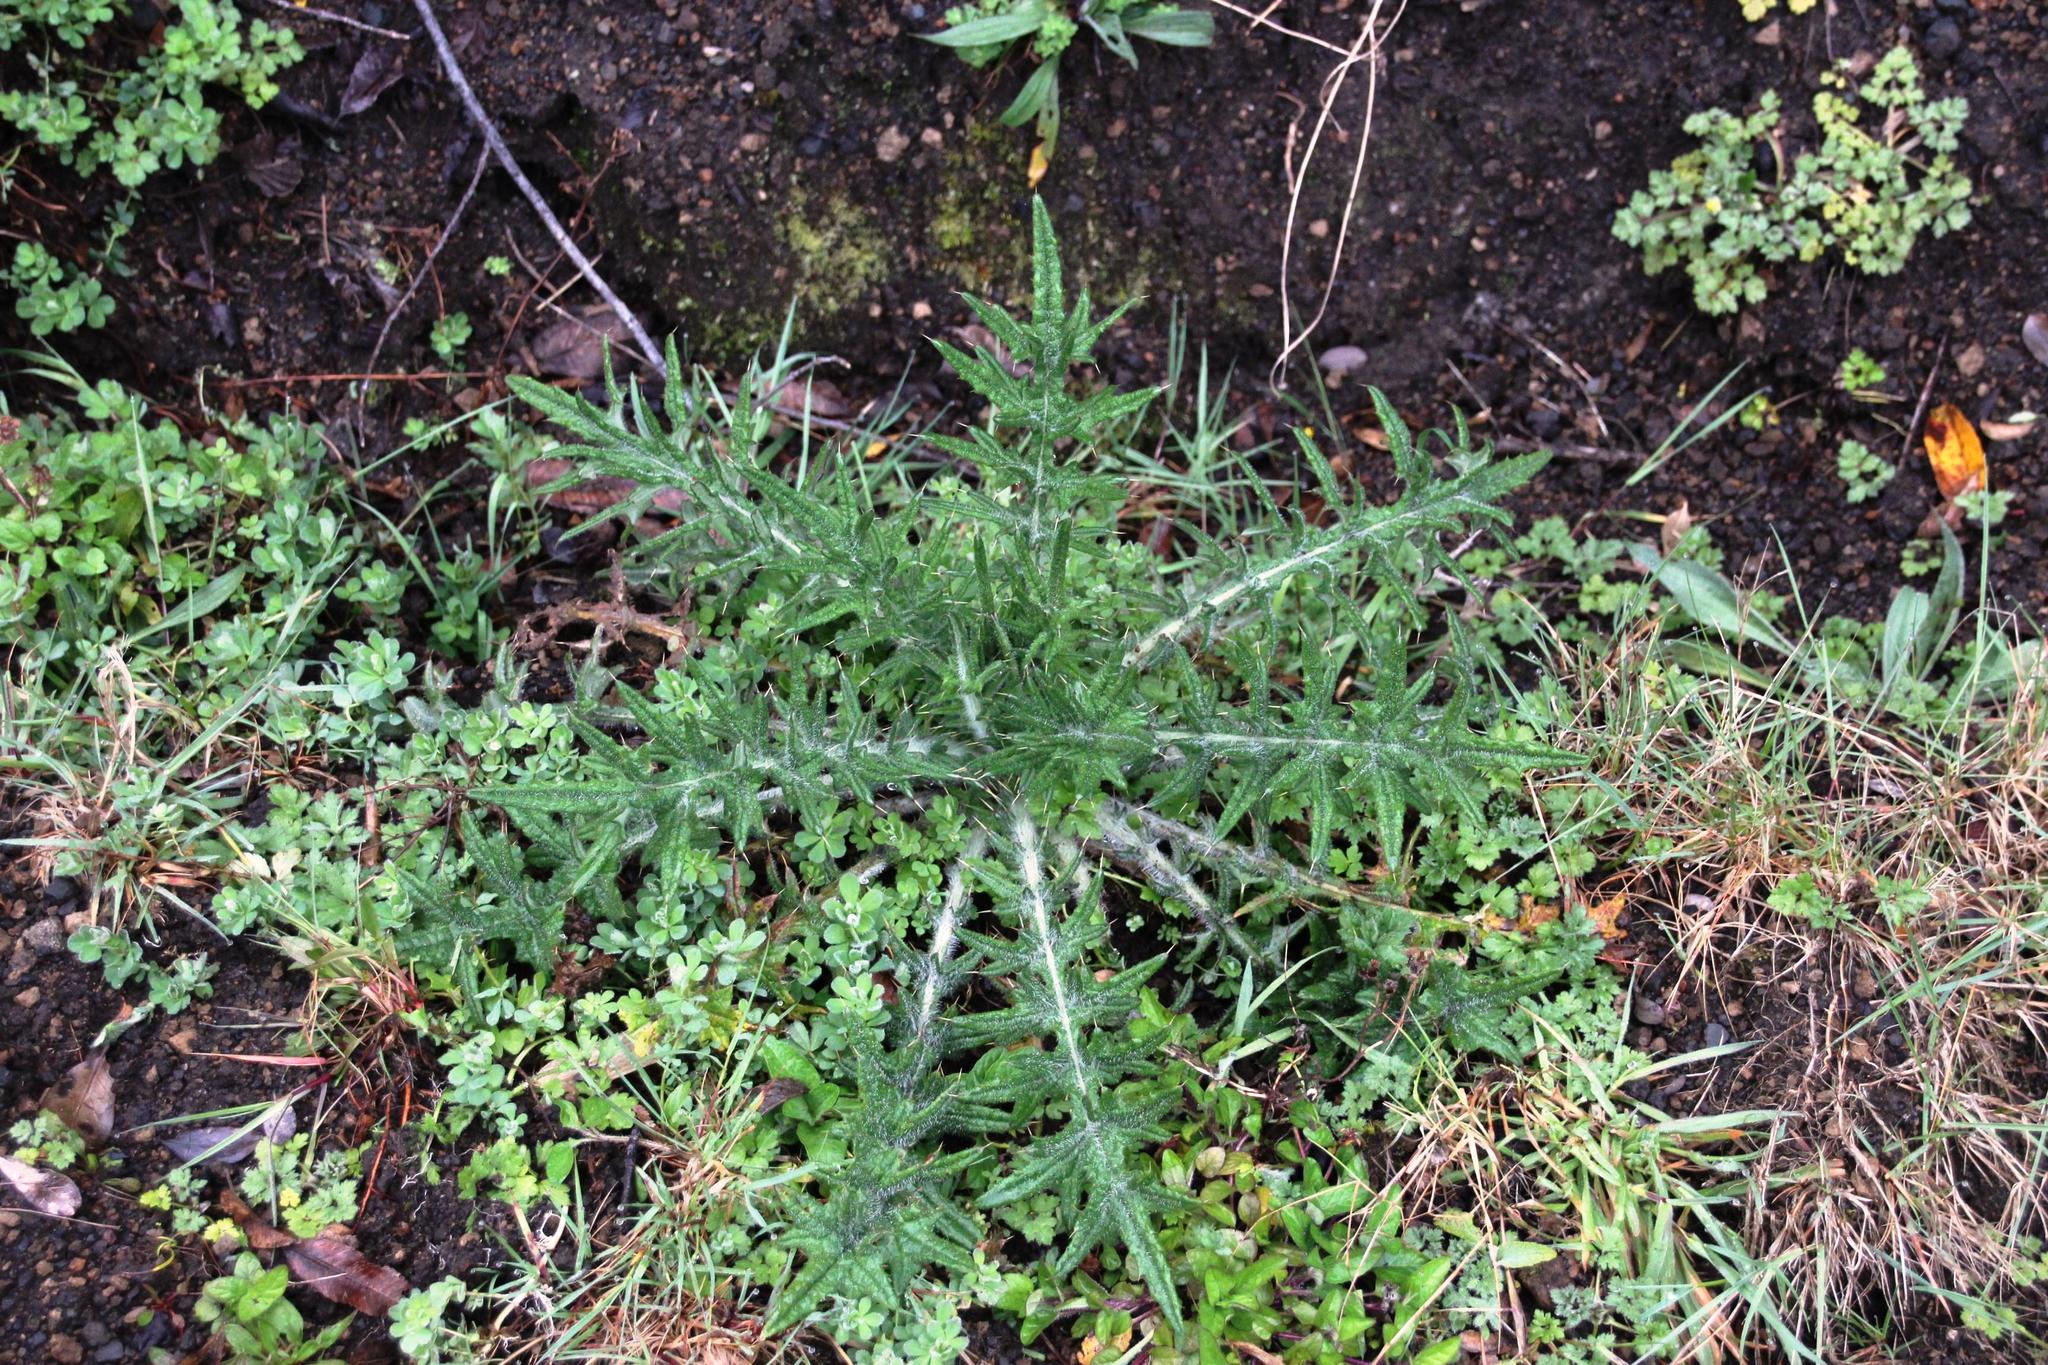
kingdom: Plantae
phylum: Tracheophyta
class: Magnoliopsida
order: Asterales
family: Asteraceae
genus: Cirsium
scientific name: Cirsium vulgare
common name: Bull thistle
